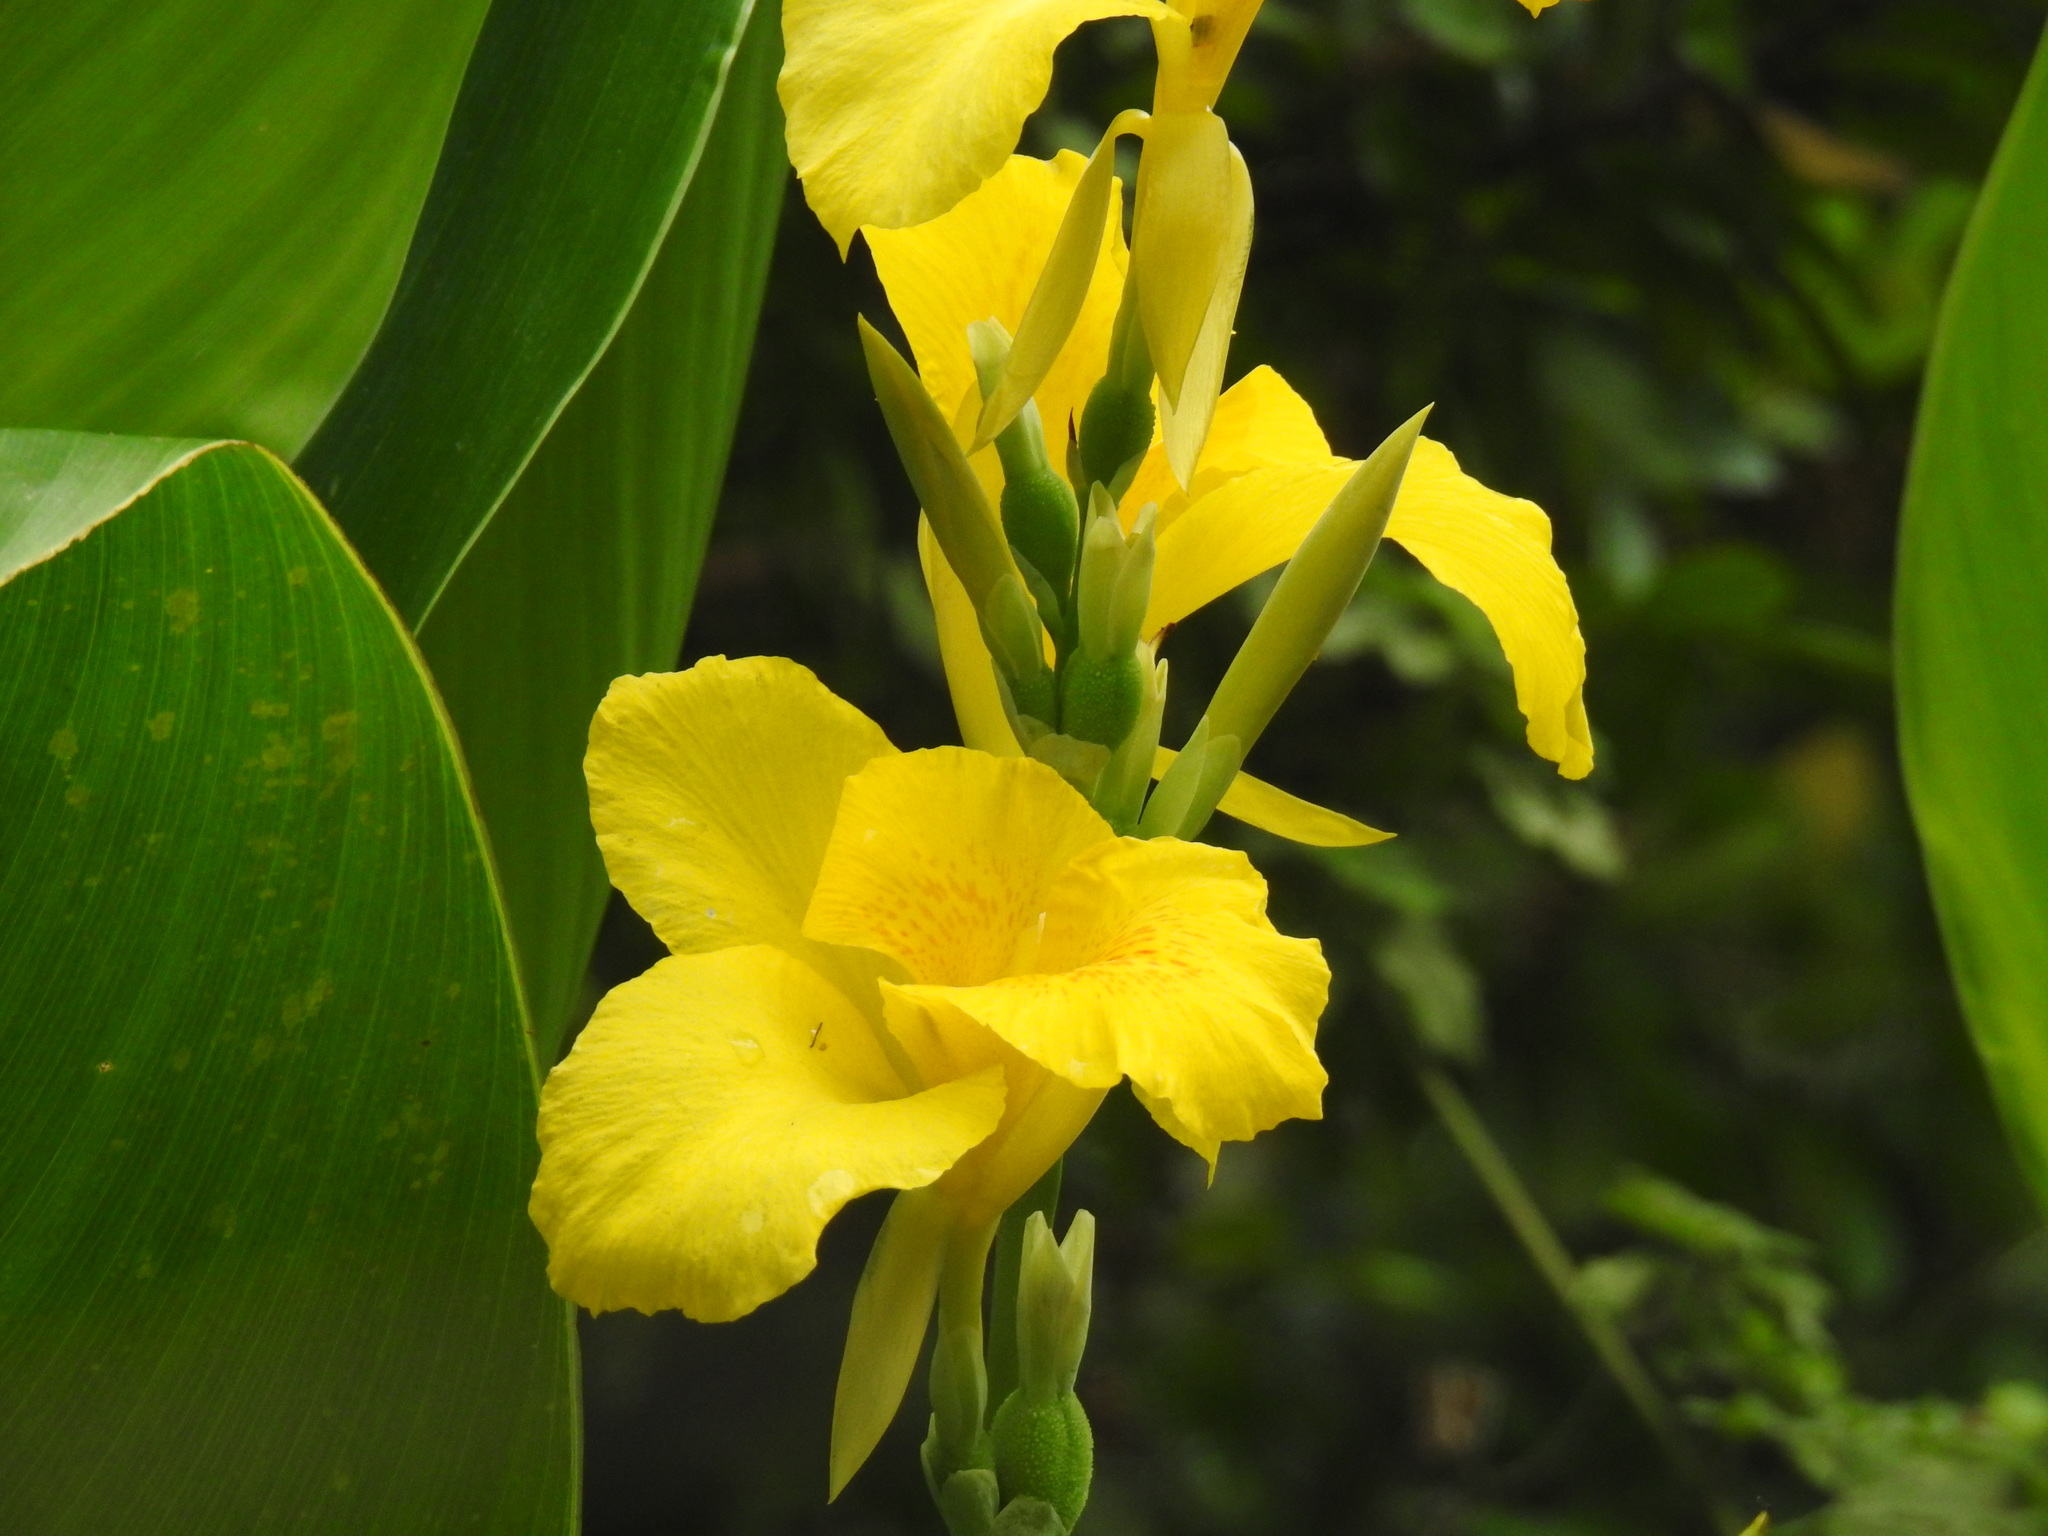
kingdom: Plantae
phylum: Tracheophyta
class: Liliopsida
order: Zingiberales
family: Cannaceae
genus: Canna
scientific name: Canna flaccida
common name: Bandana-of-the-everglades
